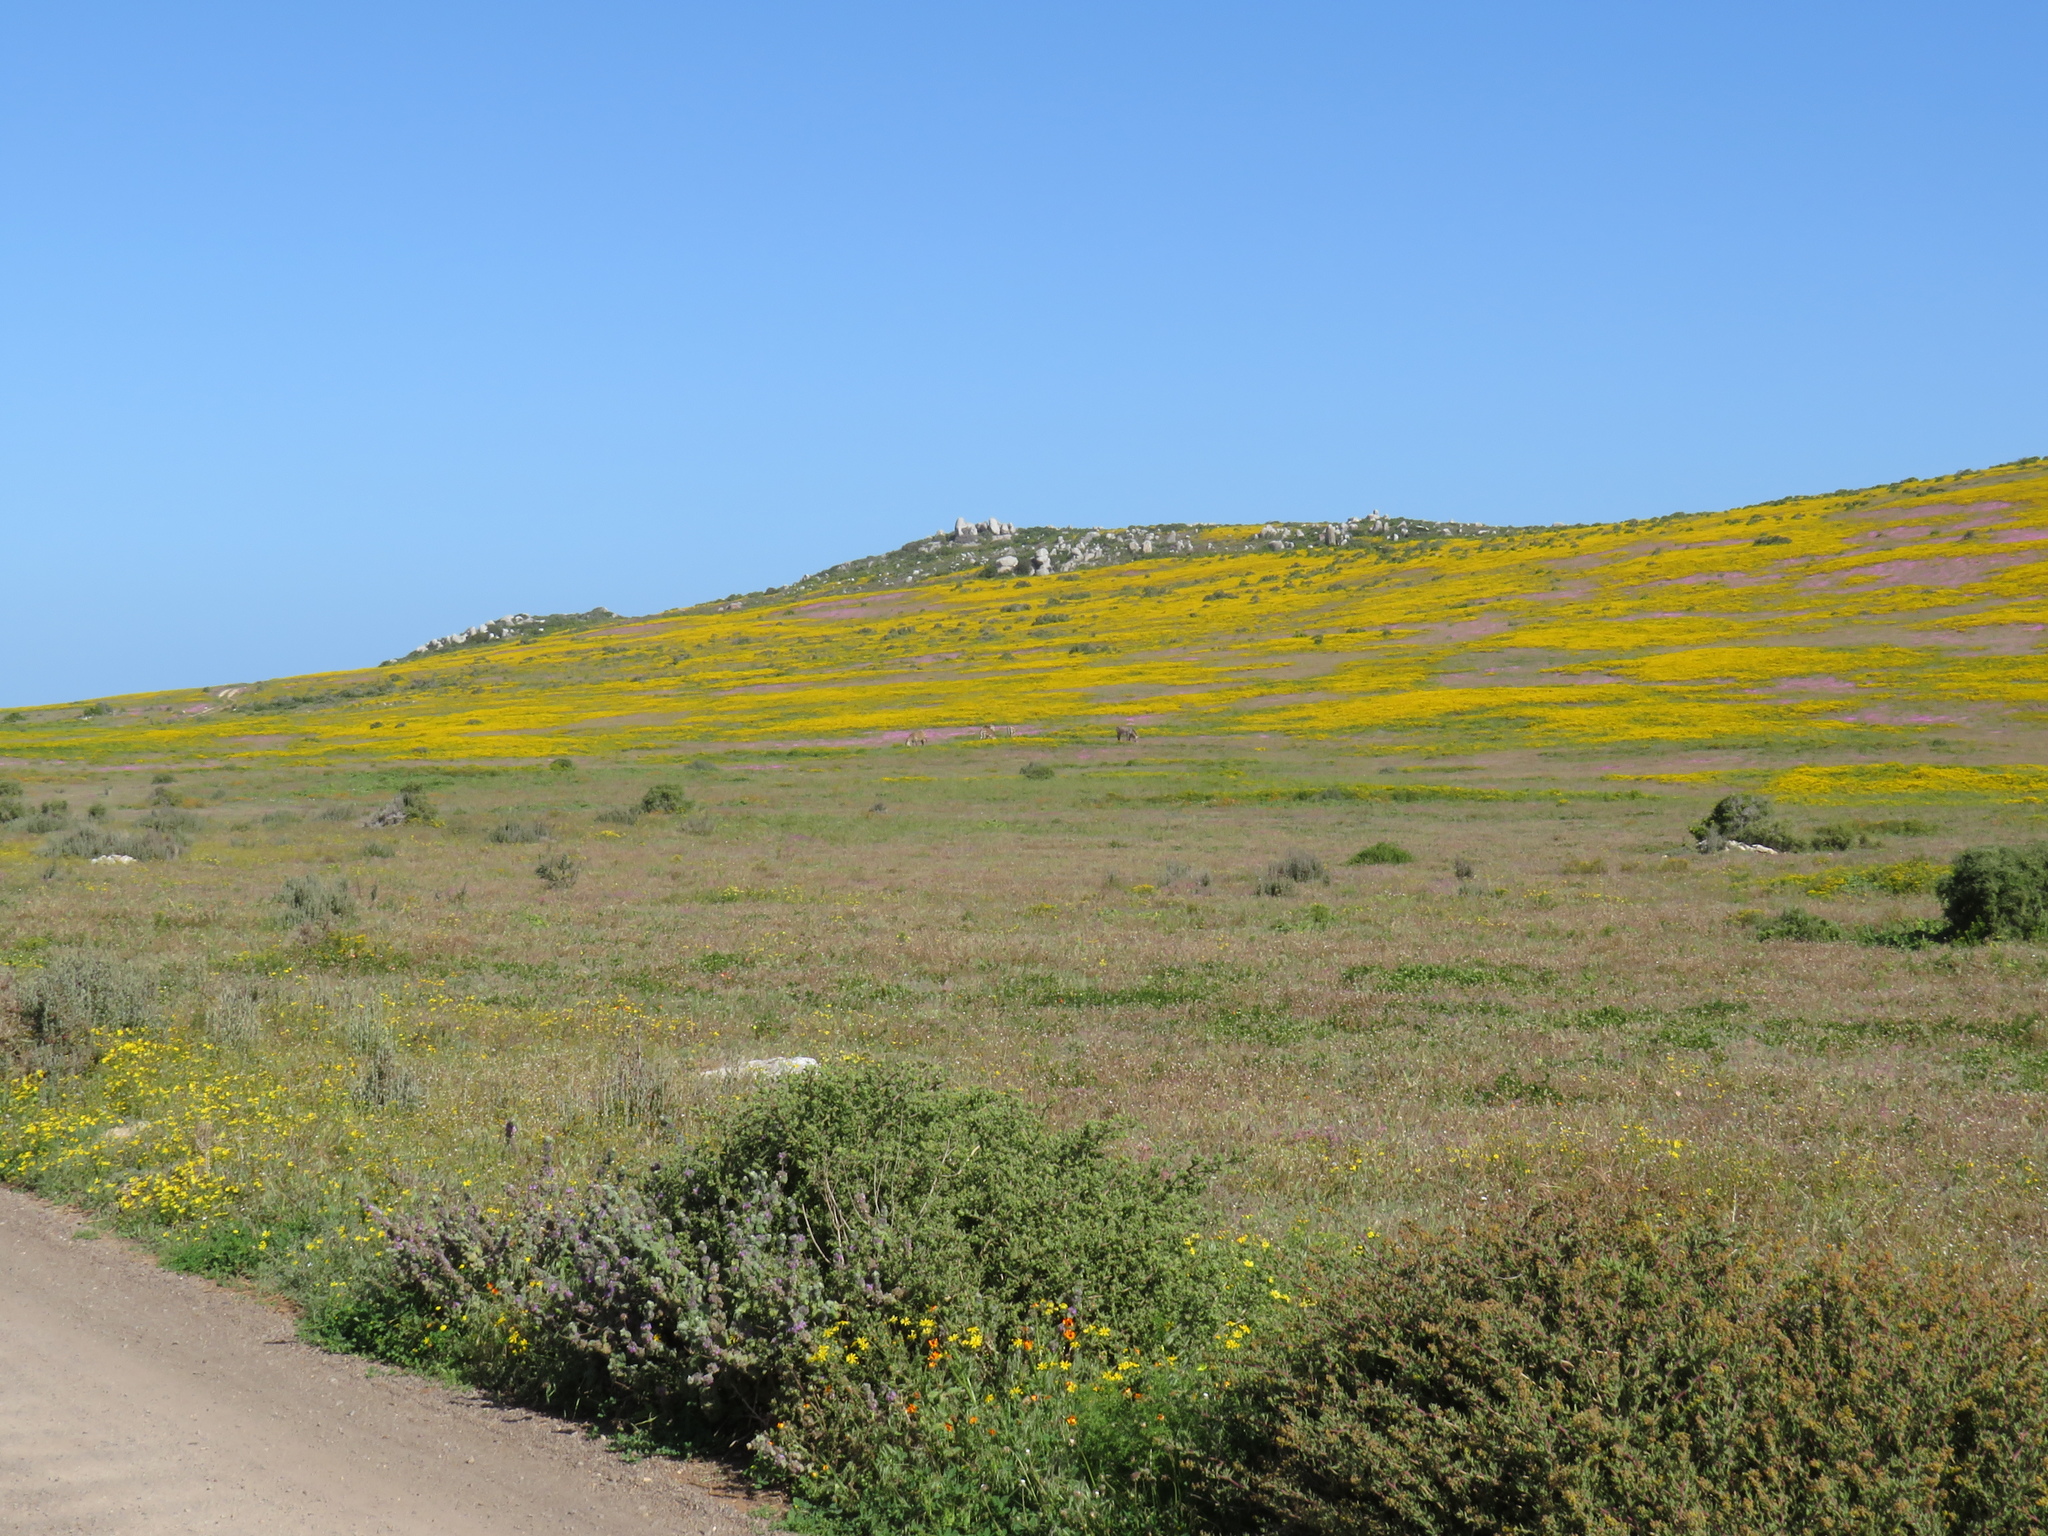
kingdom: Animalia
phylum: Chordata
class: Mammalia
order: Perissodactyla
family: Equidae
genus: Equus
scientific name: Equus zebra
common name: Mountain zebra
